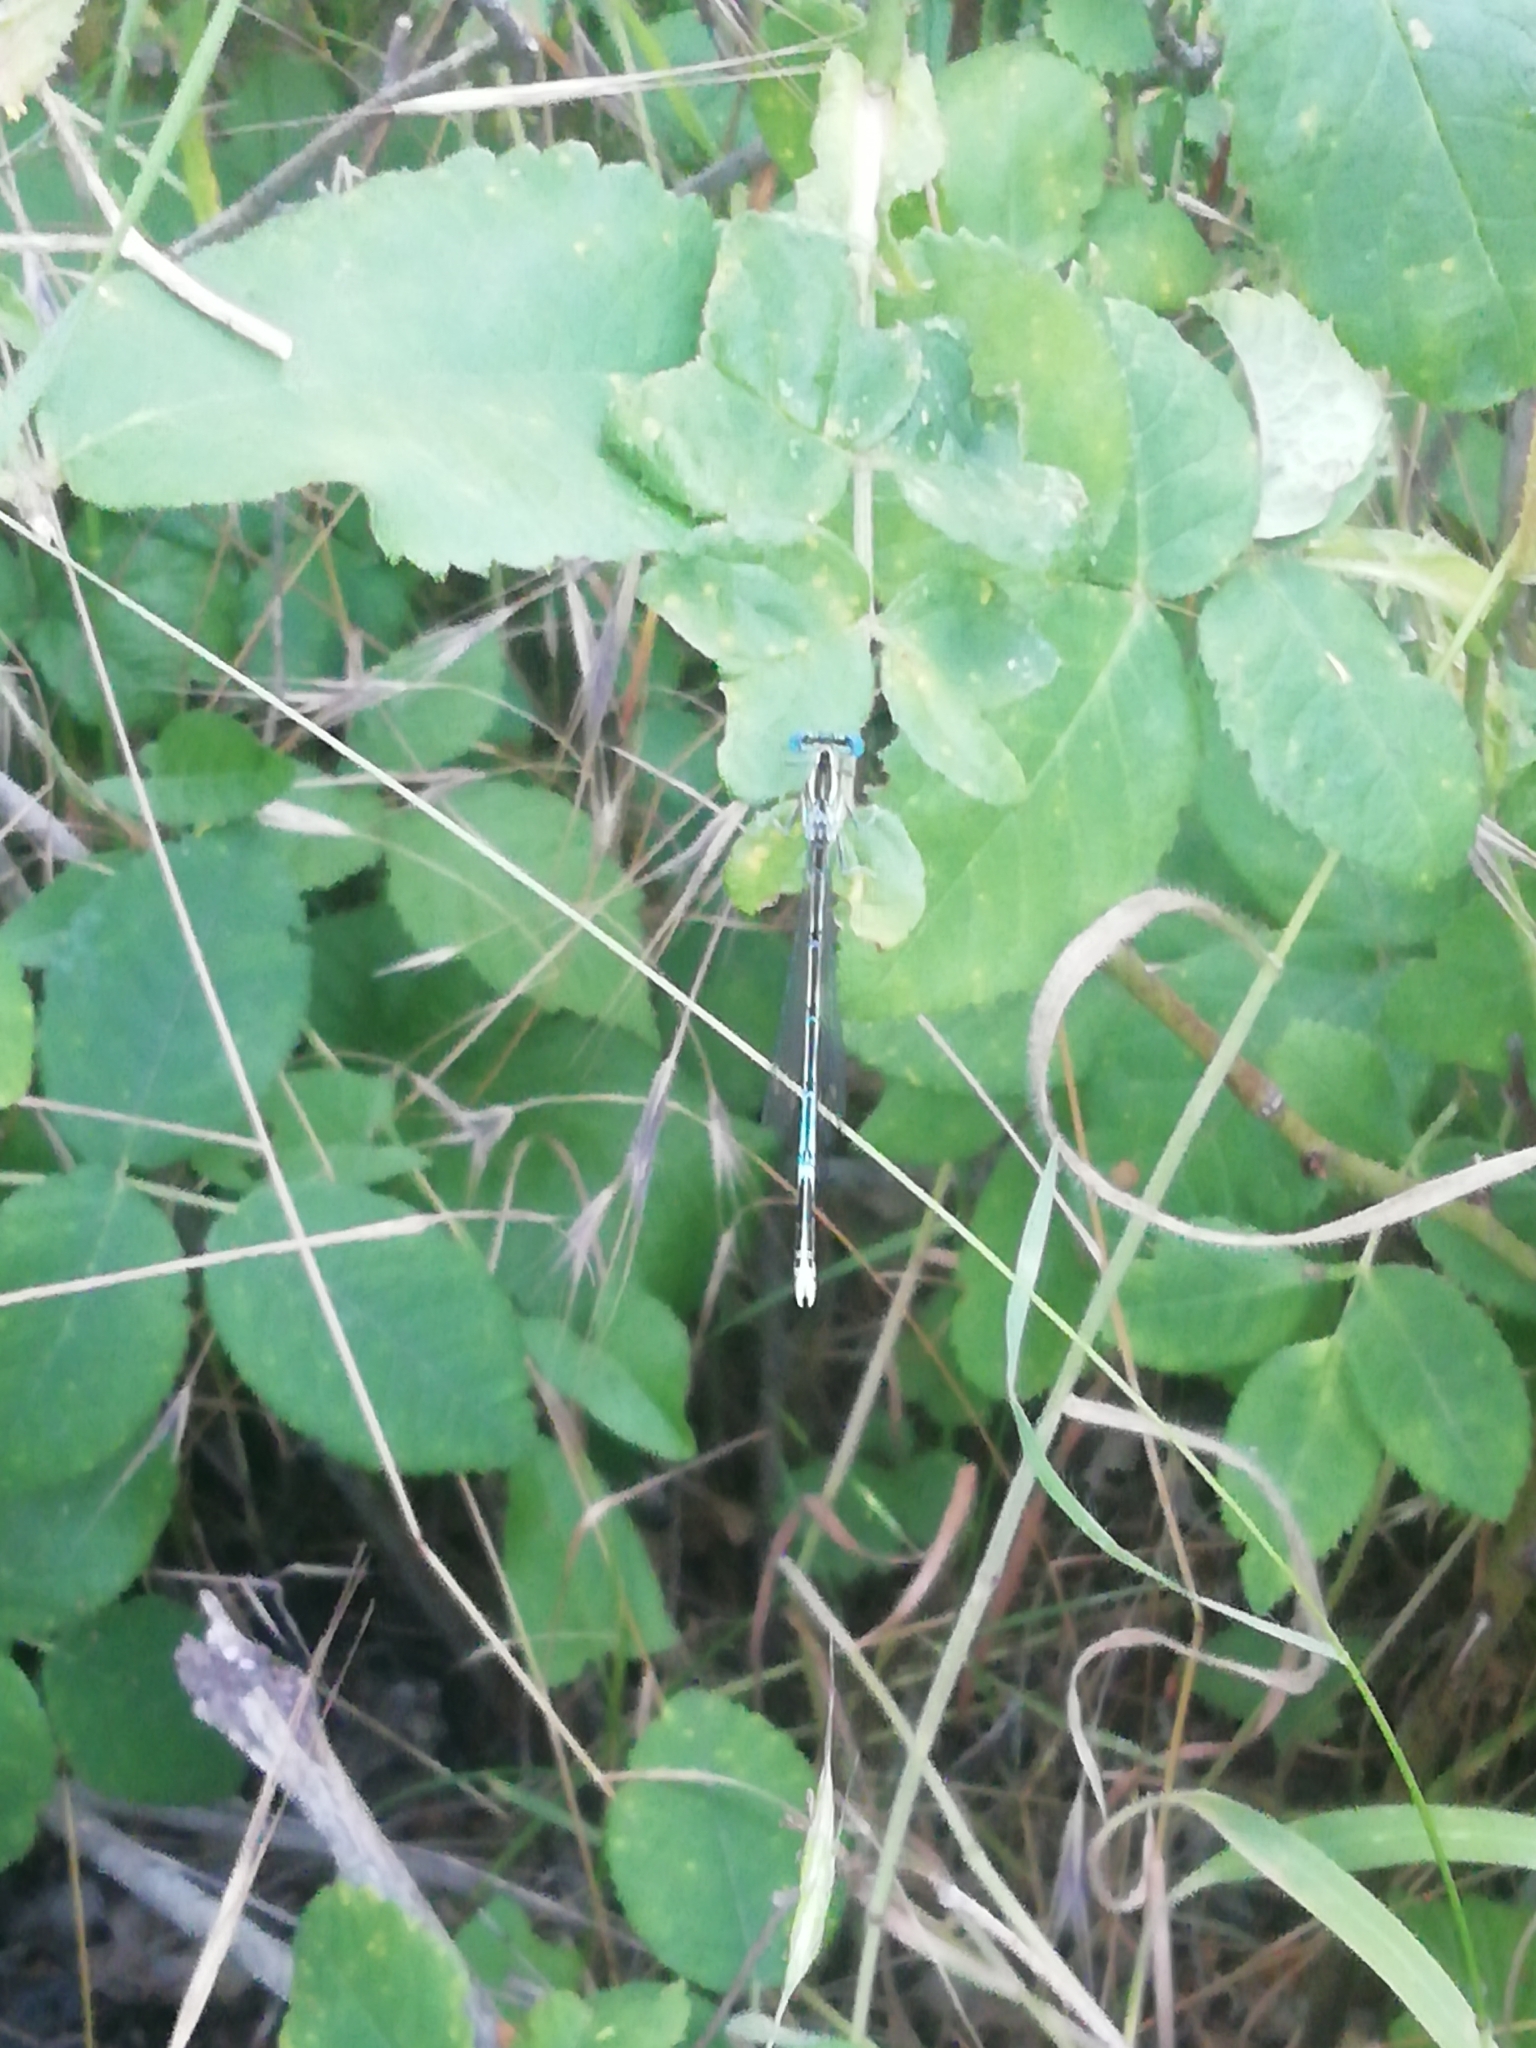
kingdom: Animalia
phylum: Arthropoda
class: Insecta
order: Odonata
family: Platycnemididae
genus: Platycnemis
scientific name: Platycnemis pennipes
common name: White-legged damselfly
